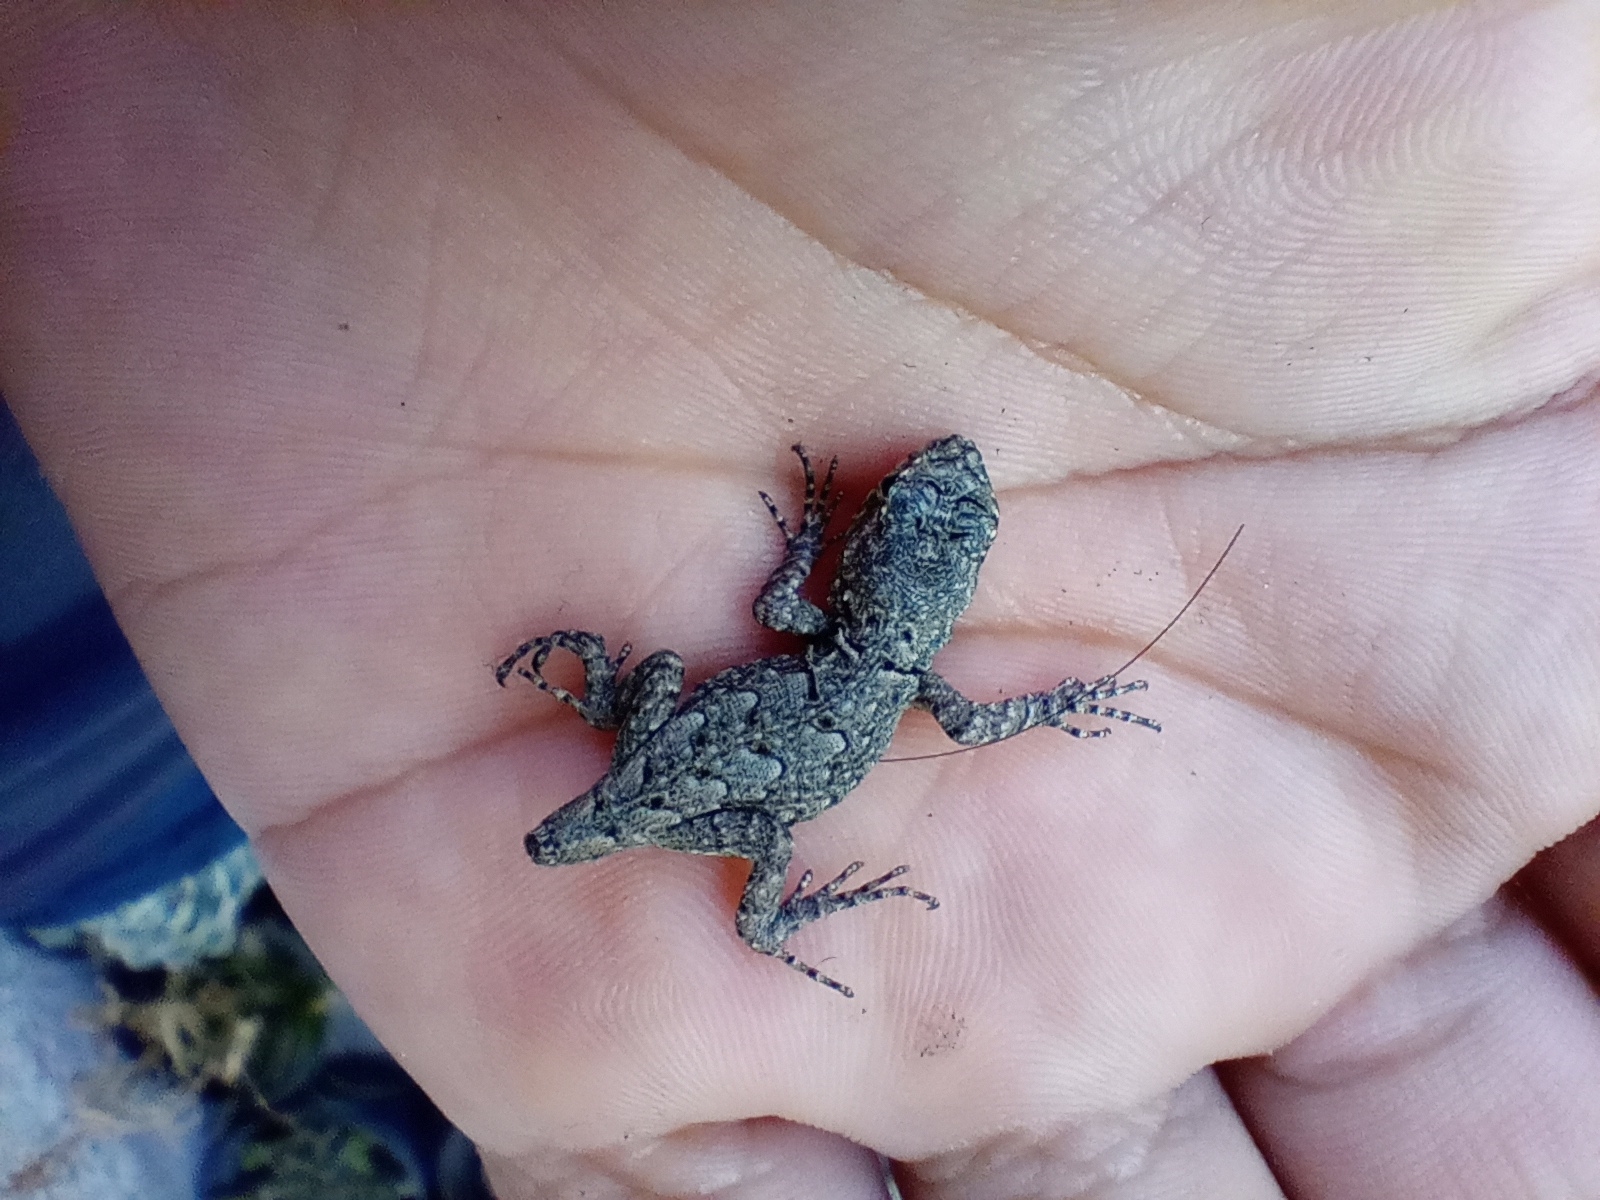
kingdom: Animalia
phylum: Chordata
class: Squamata
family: Phrynosomatidae
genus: Sceloporus
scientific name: Sceloporus grammicus
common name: Mesquite lizard
